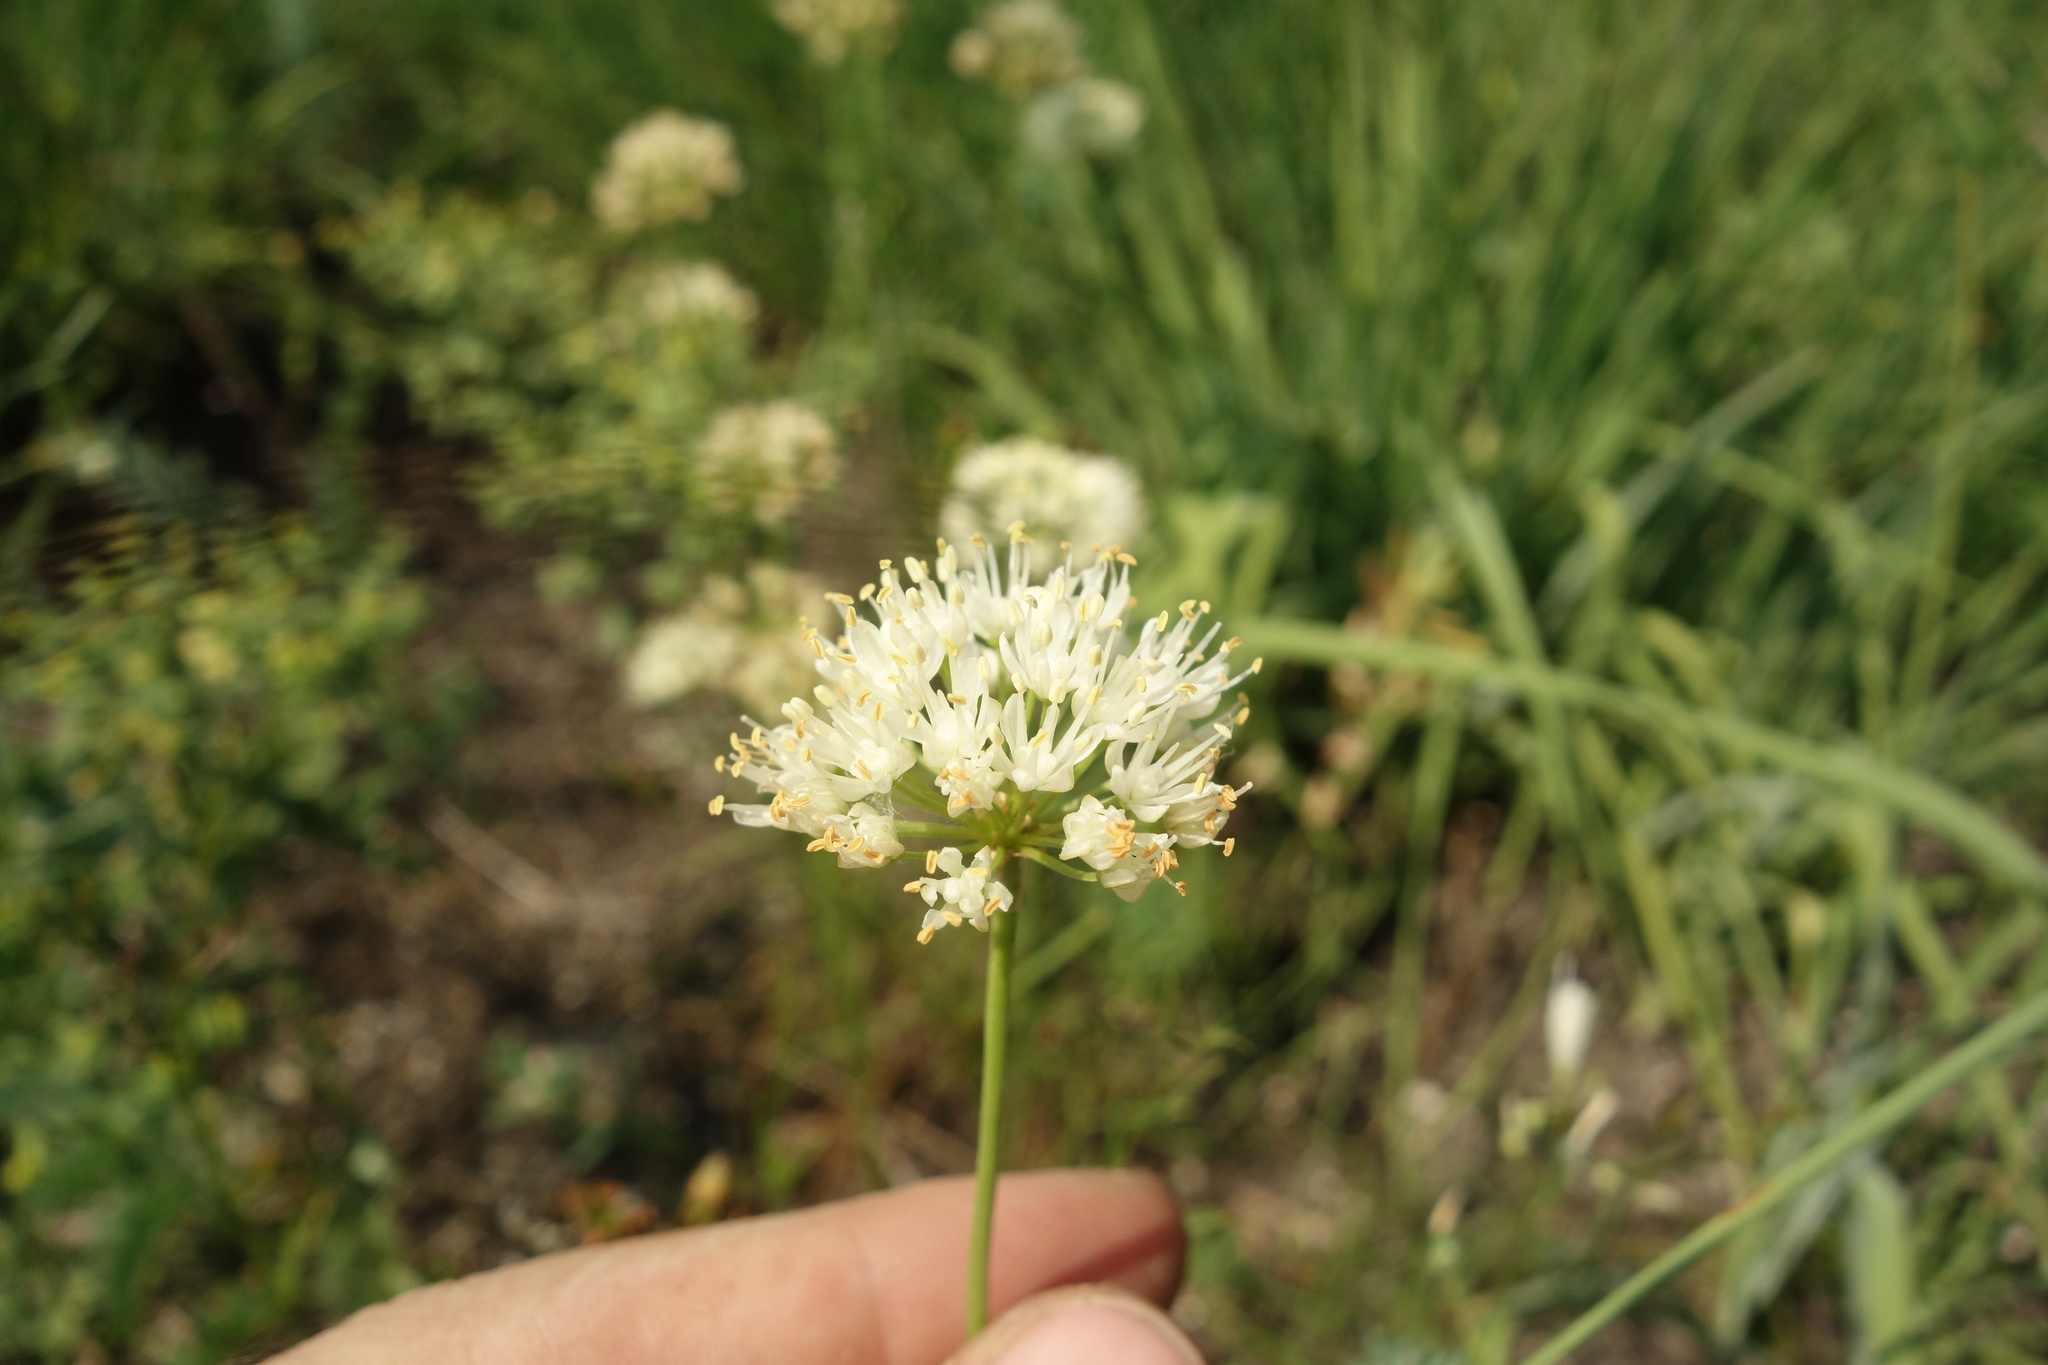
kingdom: Plantae
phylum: Tracheophyta
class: Liliopsida
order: Asparagales
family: Amaryllidaceae
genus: Allium
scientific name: Allium flavescens
